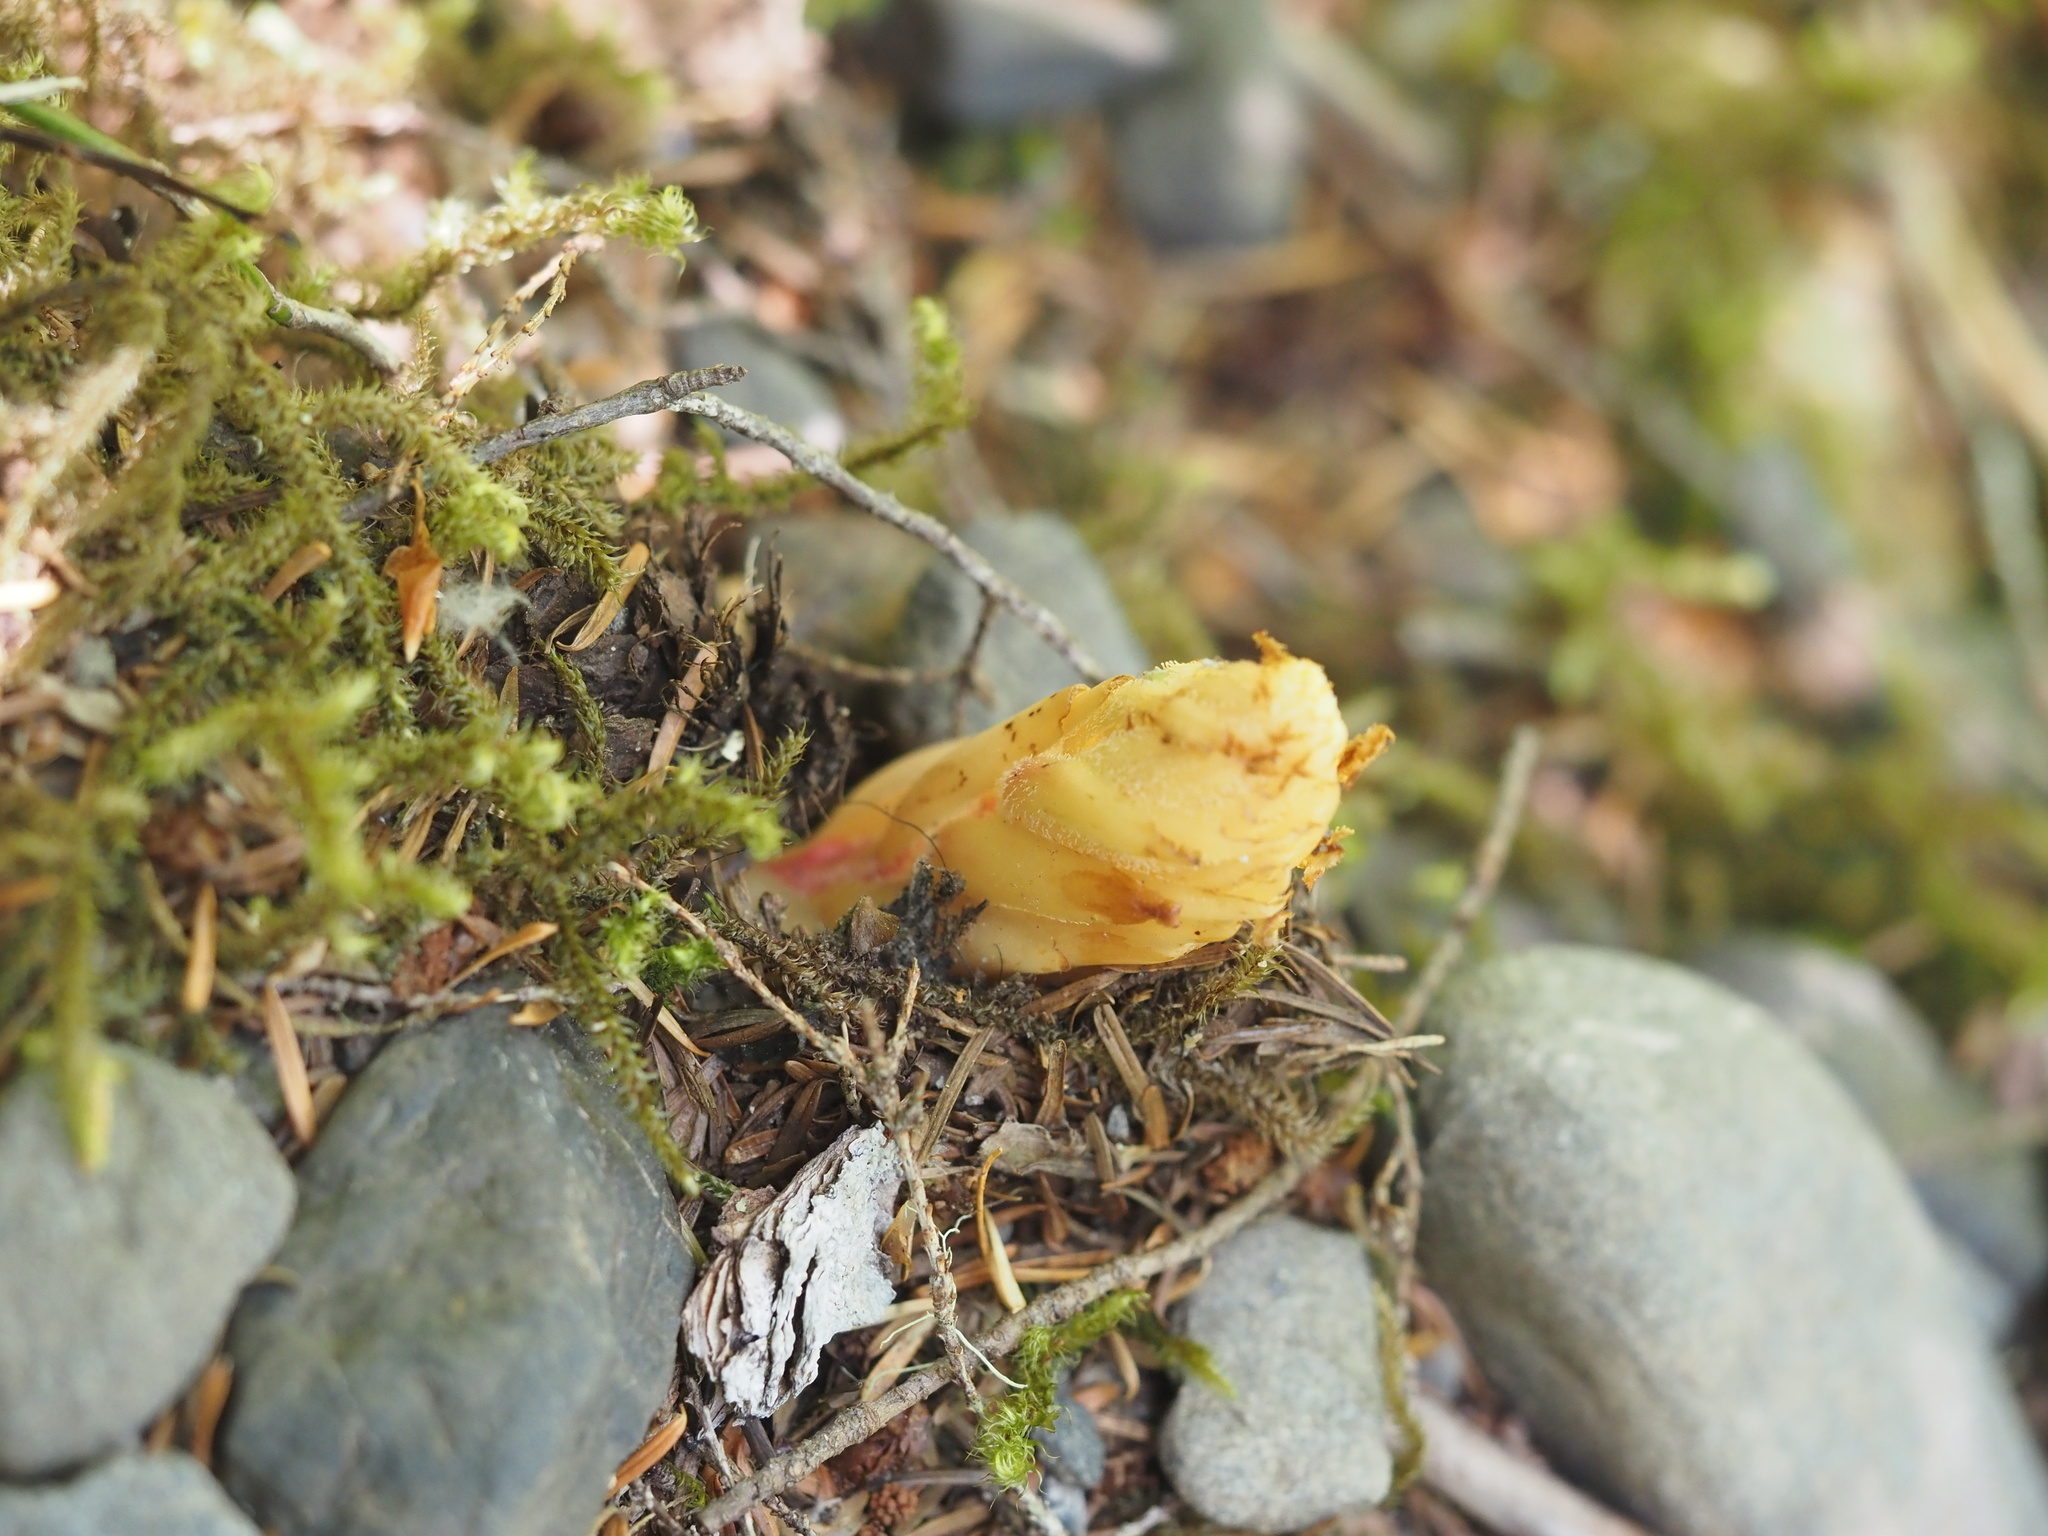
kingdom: Plantae
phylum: Tracheophyta
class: Magnoliopsida
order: Ericales
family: Ericaceae
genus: Hypopitys
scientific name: Hypopitys monotropa
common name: Yellow bird's-nest
